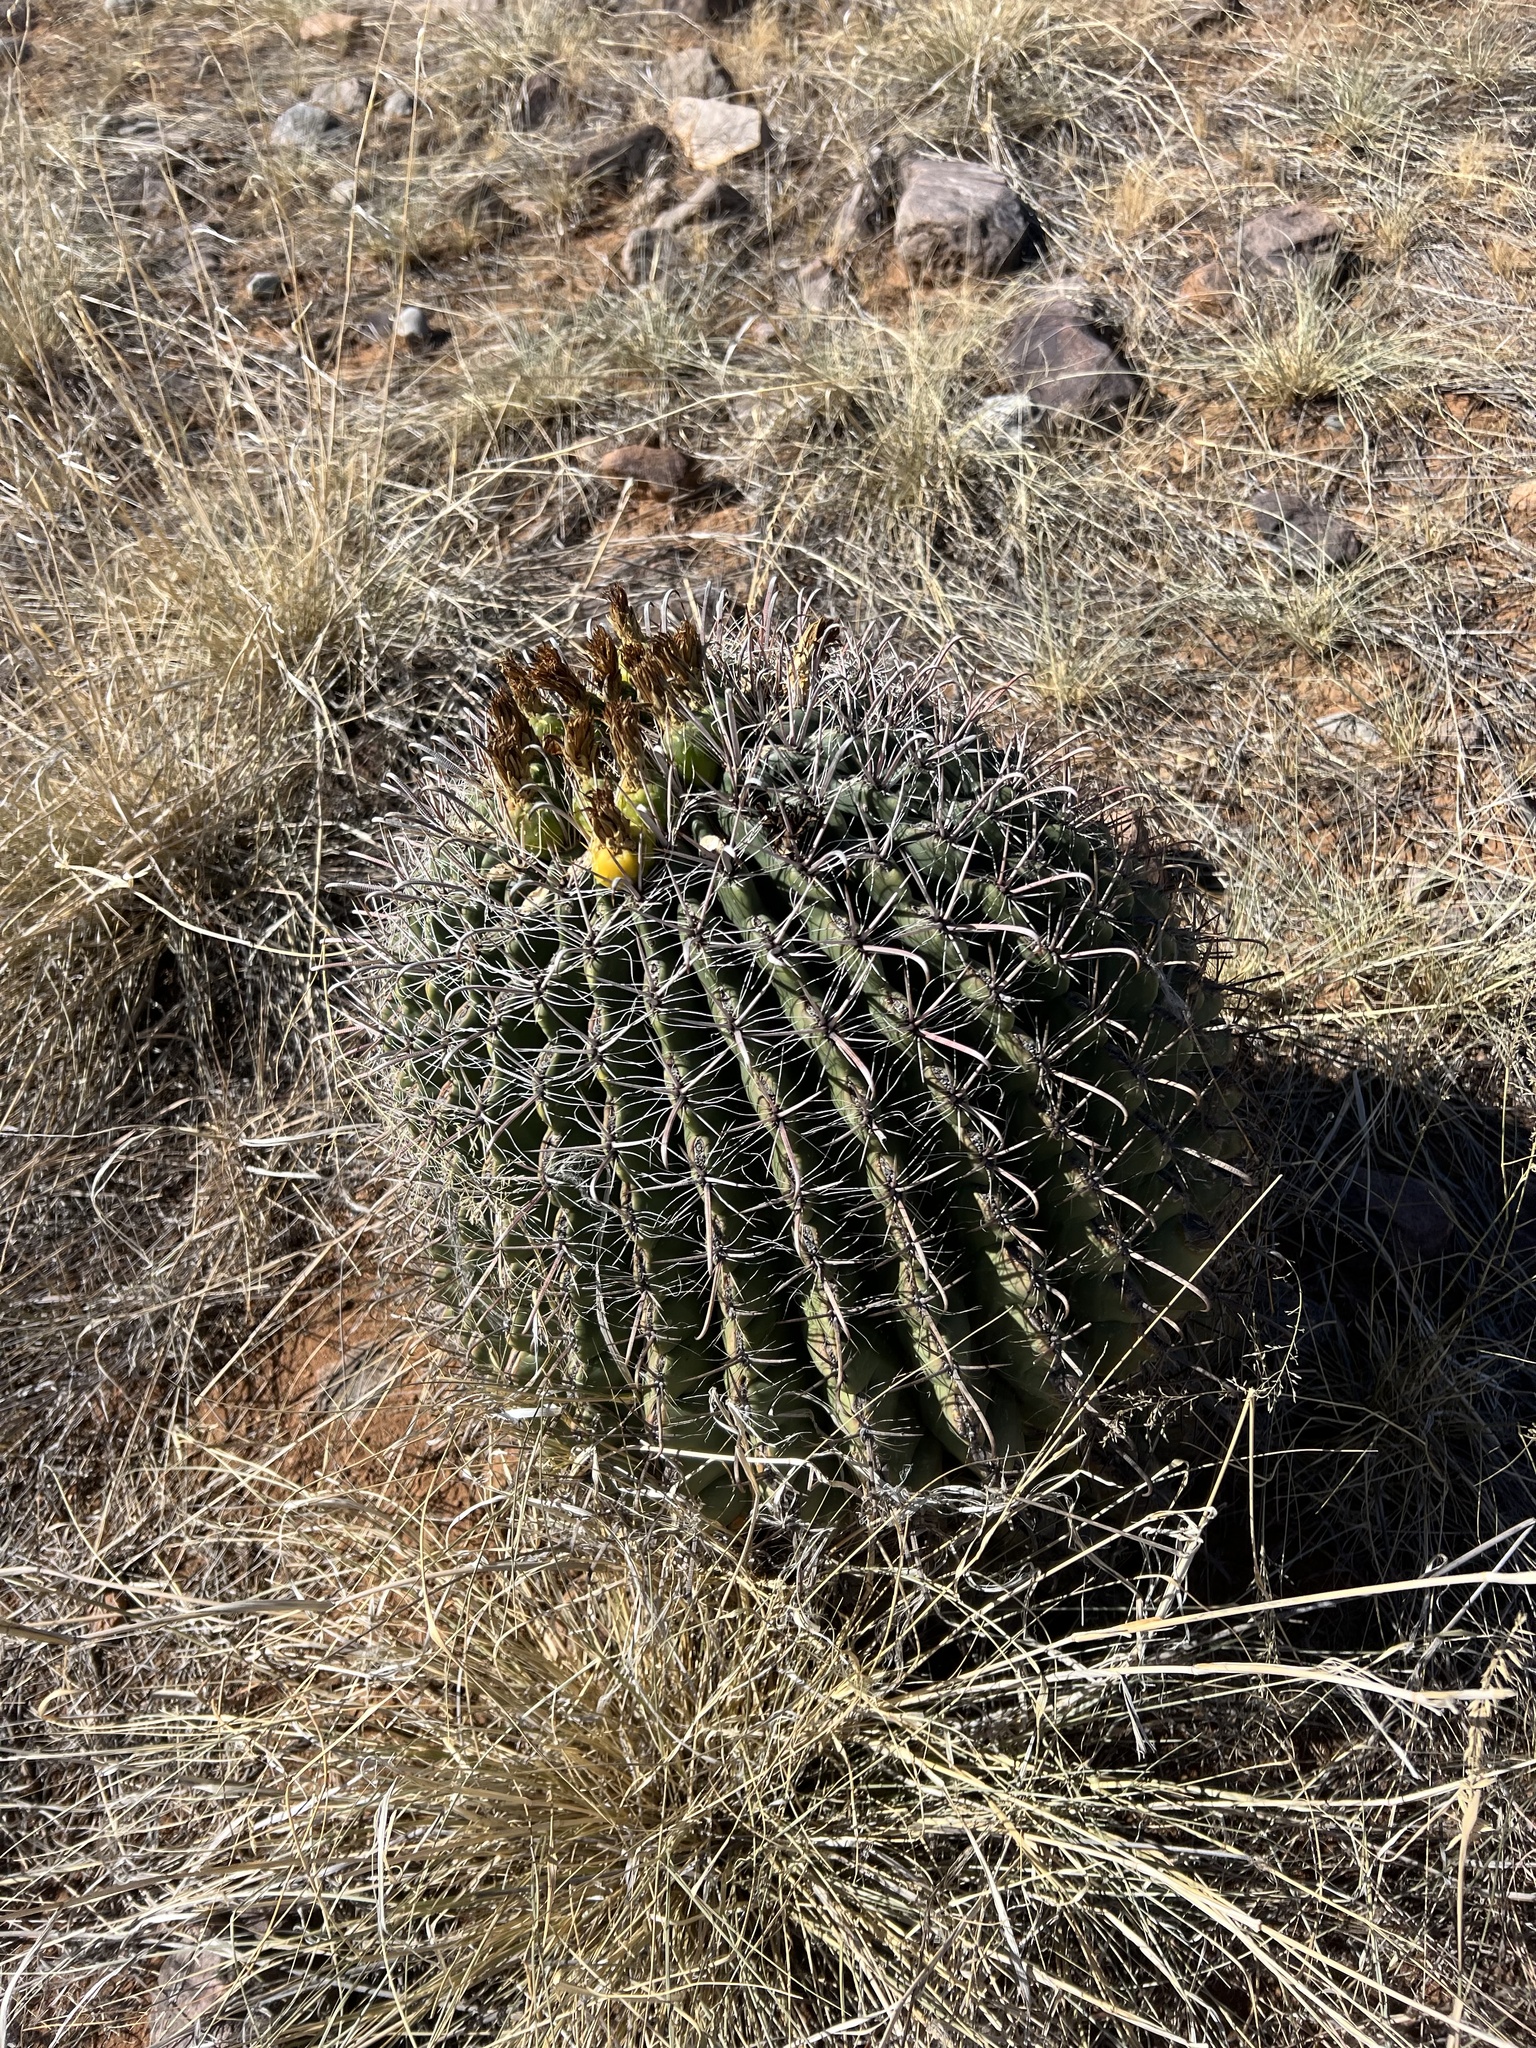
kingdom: Plantae
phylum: Tracheophyta
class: Magnoliopsida
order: Caryophyllales
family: Cactaceae
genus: Ferocactus
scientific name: Ferocactus wislizeni
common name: Candy barrel cactus
